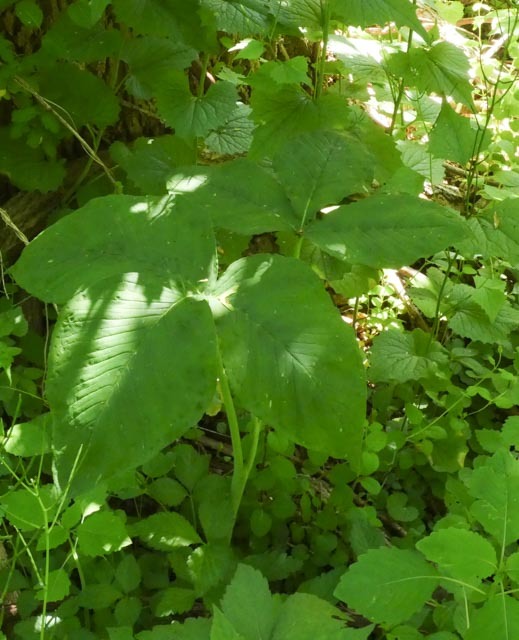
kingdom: Plantae
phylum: Tracheophyta
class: Liliopsida
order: Alismatales
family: Araceae
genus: Arisaema
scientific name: Arisaema triphyllum
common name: Jack-in-the-pulpit
